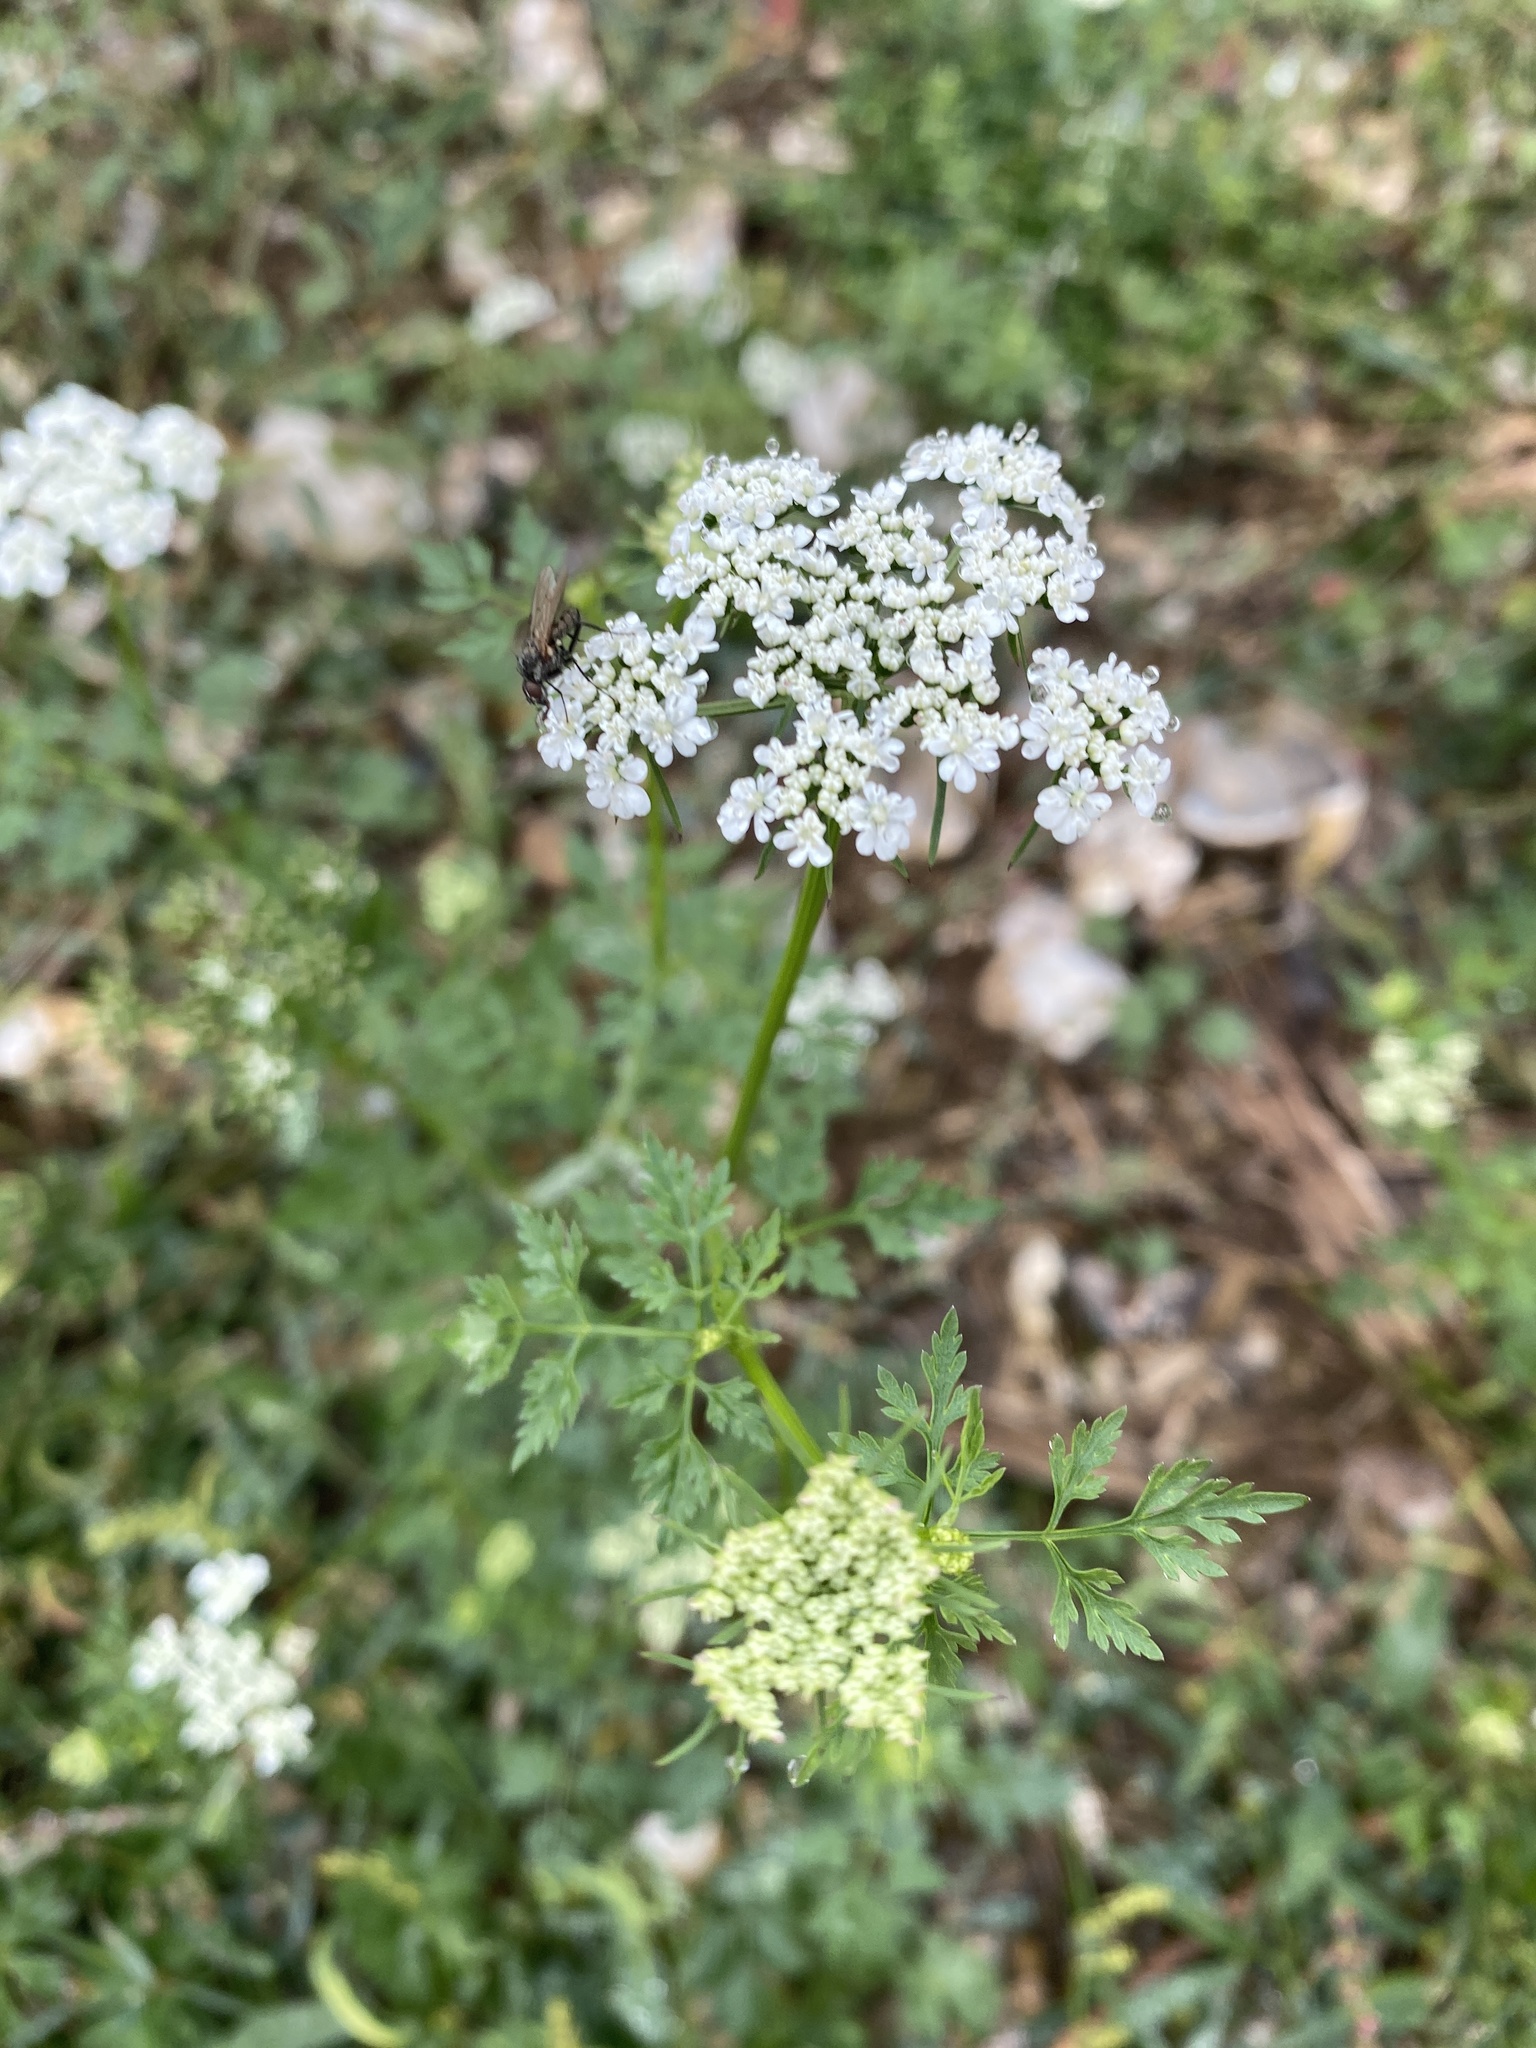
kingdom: Plantae
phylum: Tracheophyta
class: Magnoliopsida
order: Apiales
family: Apiaceae
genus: Aethusa
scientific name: Aethusa cynapium
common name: Fool's parsley
